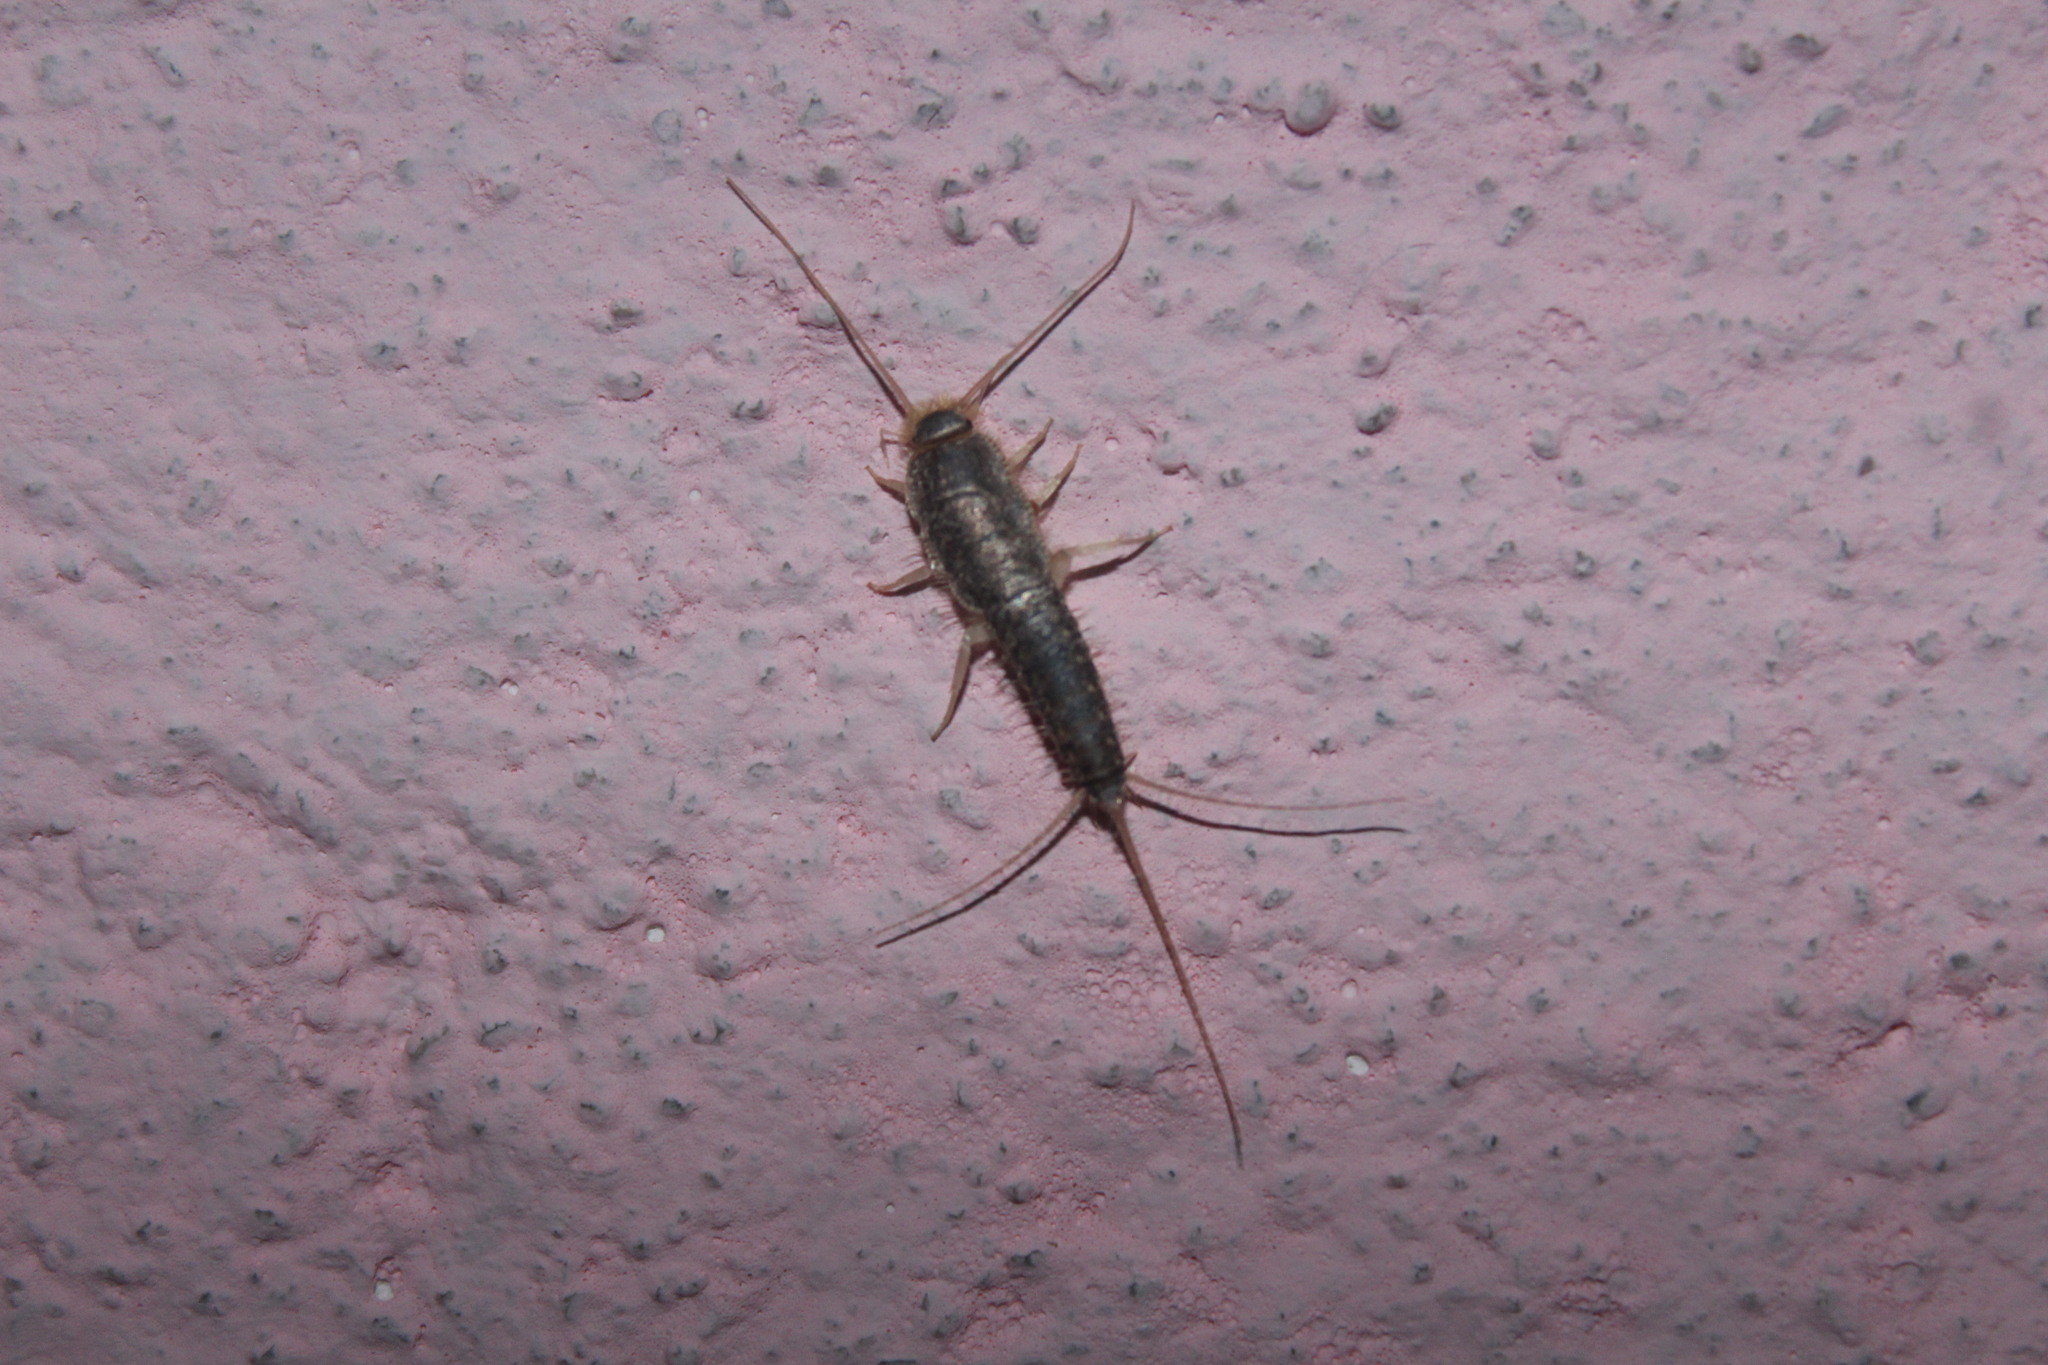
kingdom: Animalia
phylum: Arthropoda
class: Insecta
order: Zygentoma
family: Lepismatidae
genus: Ctenolepisma
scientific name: Ctenolepisma longicaudatum
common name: Silverfish
